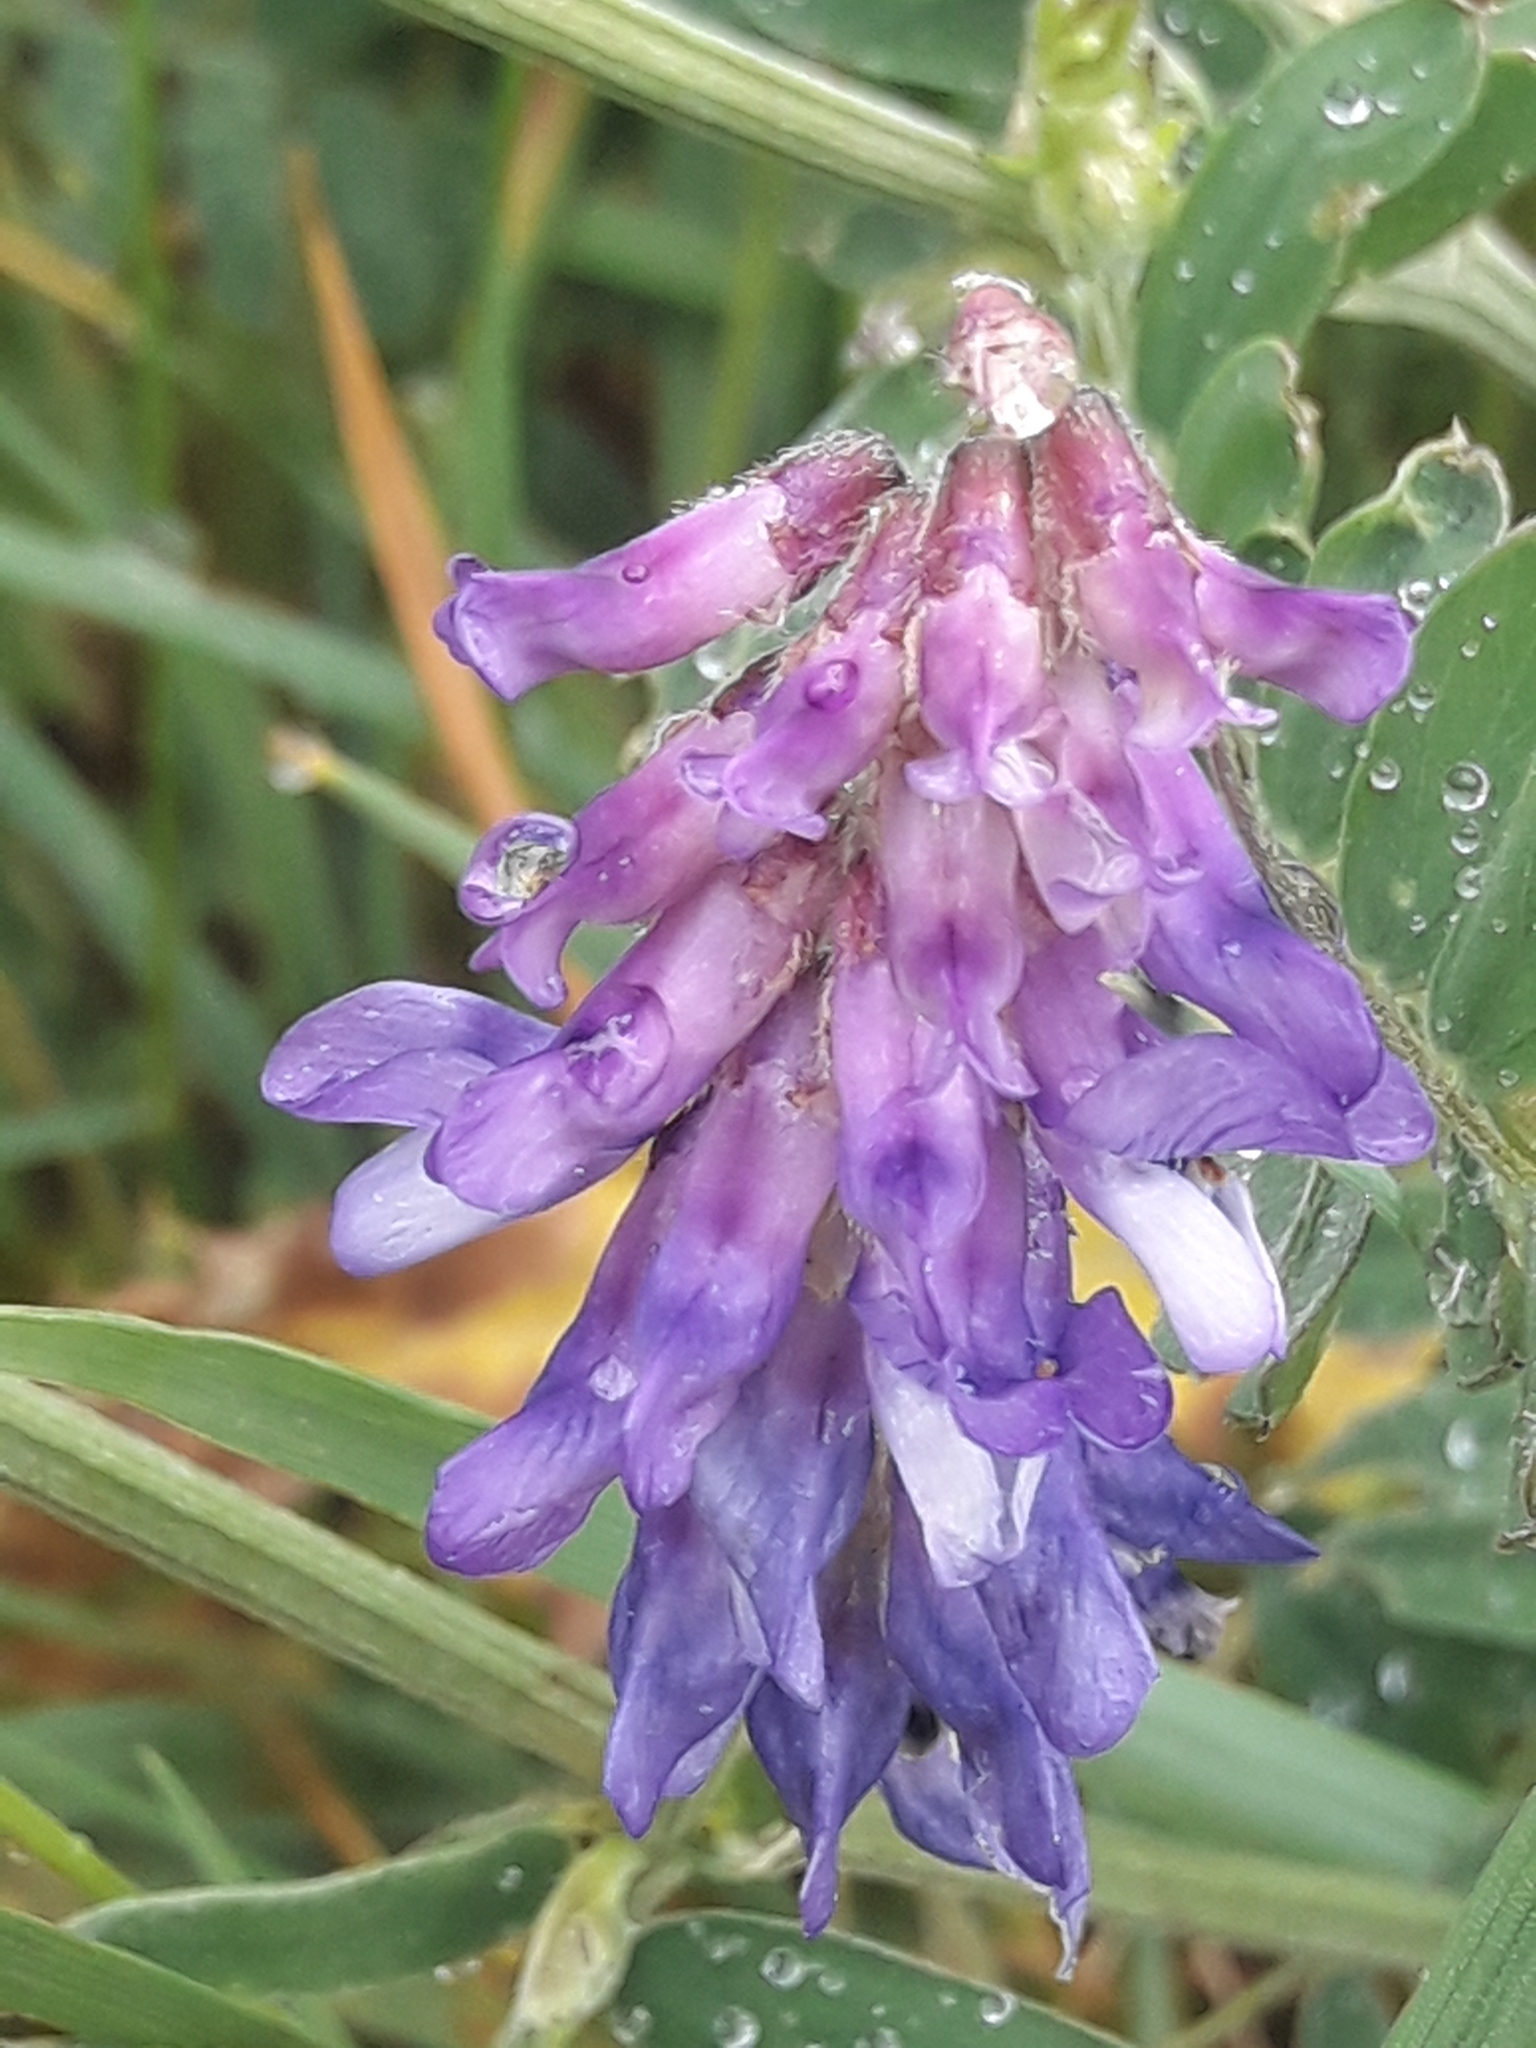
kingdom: Plantae
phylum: Tracheophyta
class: Magnoliopsida
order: Fabales
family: Fabaceae
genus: Vicia
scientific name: Vicia cracca
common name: Bird vetch
